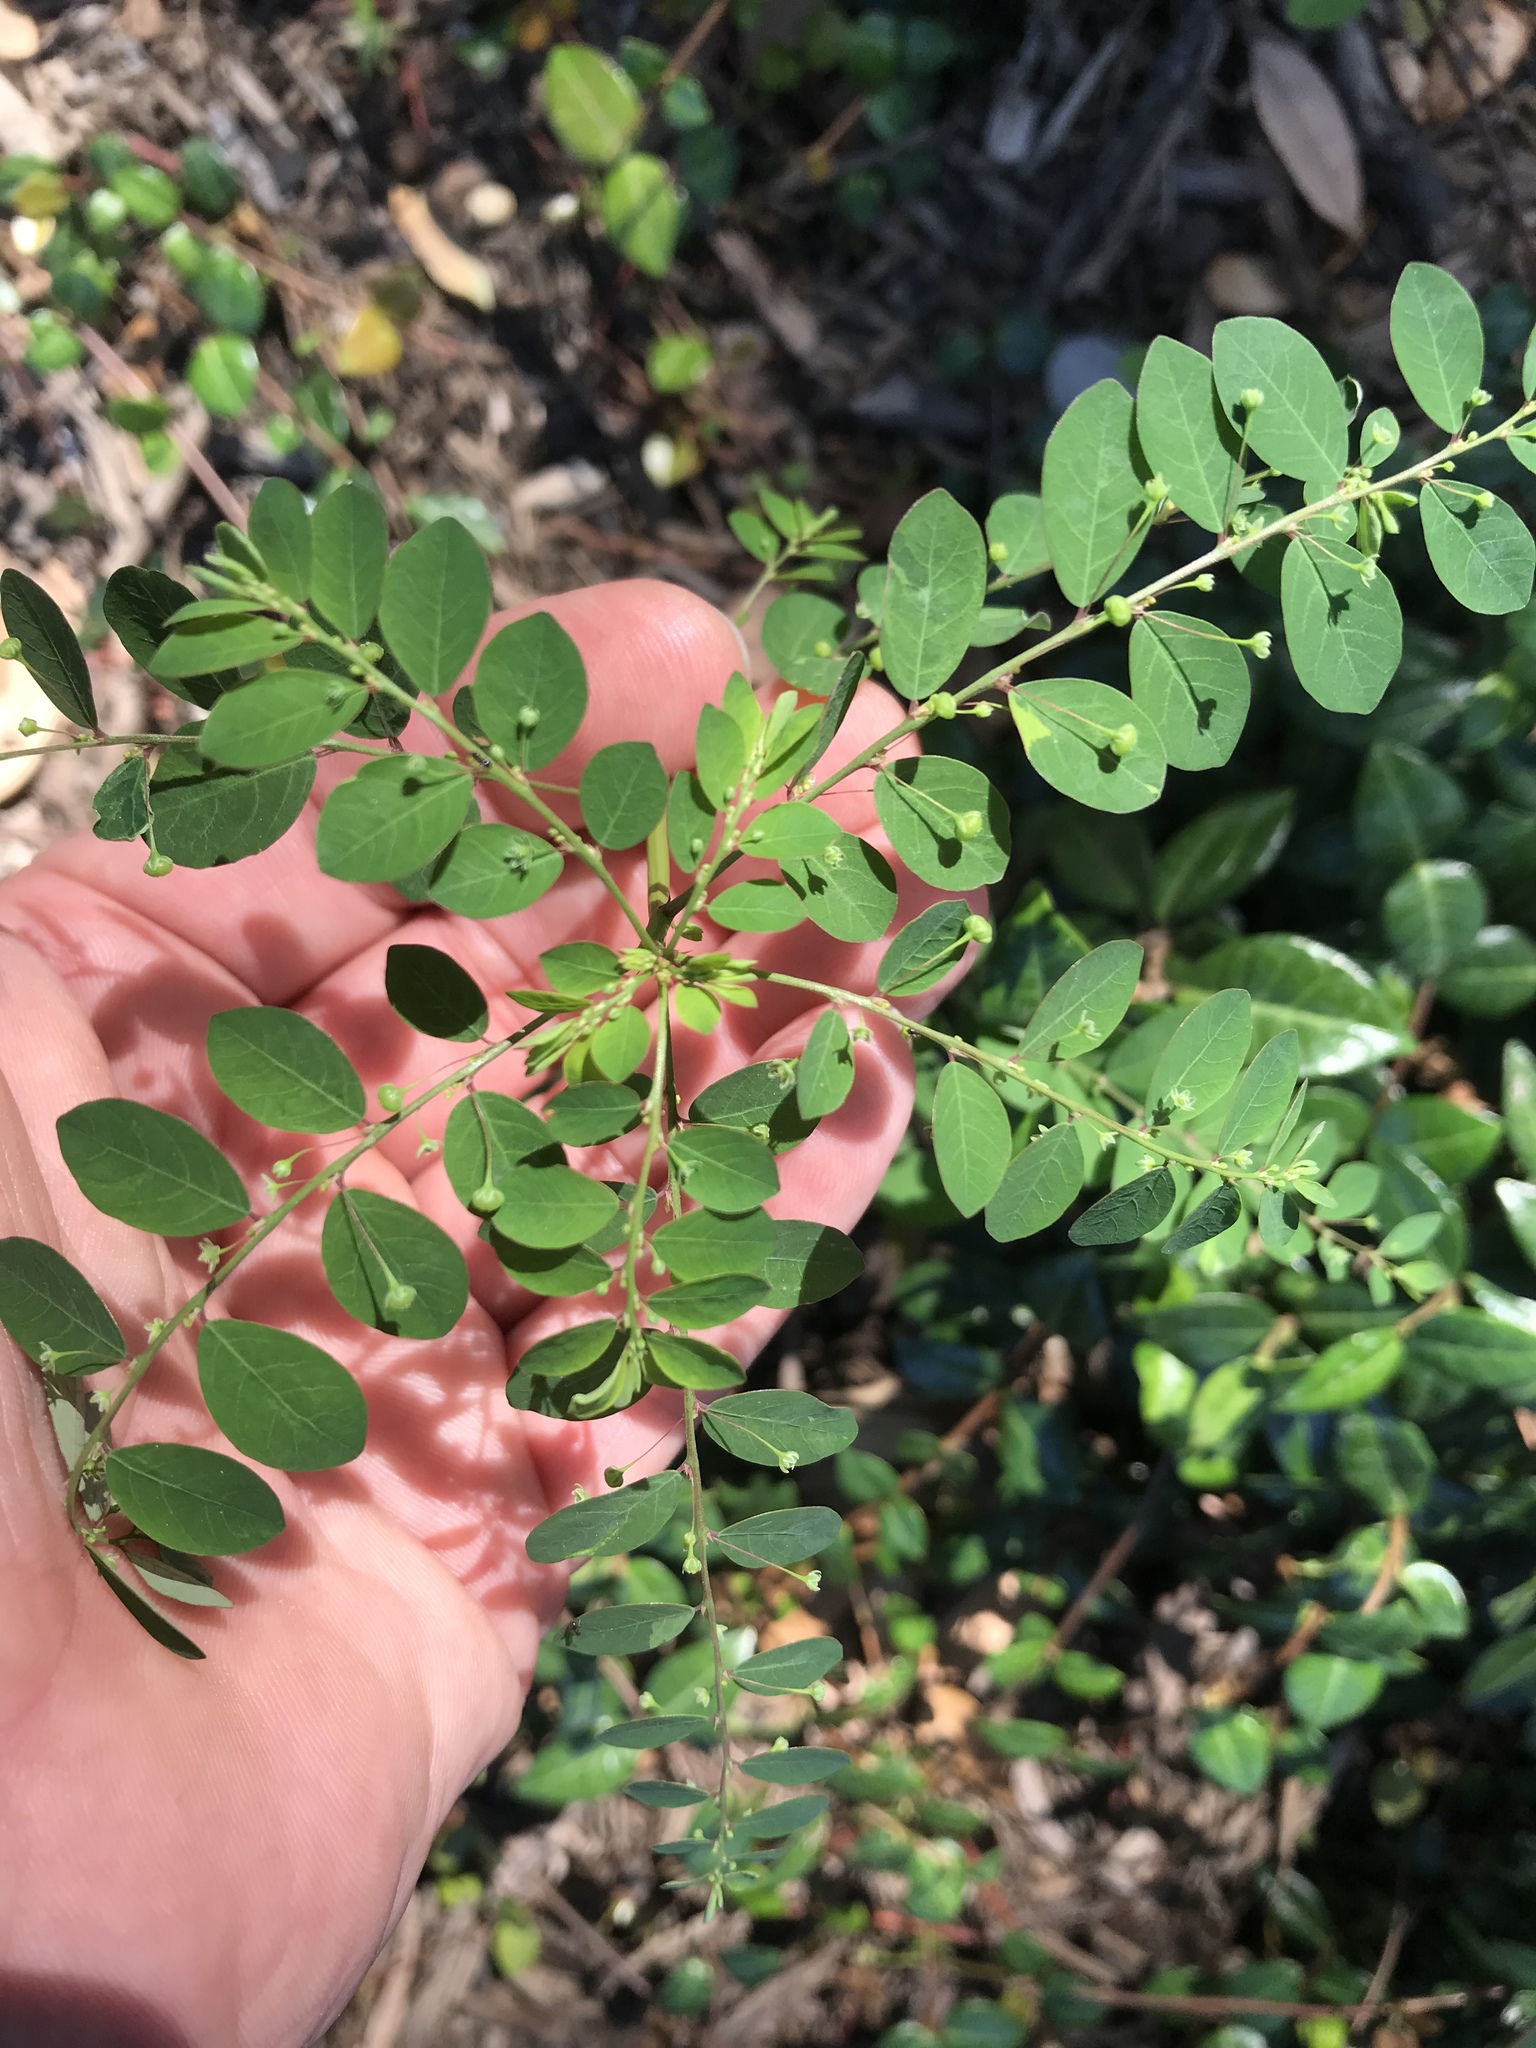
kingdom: Plantae
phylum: Tracheophyta
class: Magnoliopsida
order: Malpighiales
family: Phyllanthaceae
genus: Phyllanthus
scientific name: Phyllanthus tenellus
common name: Mascarene island leaf-flower
